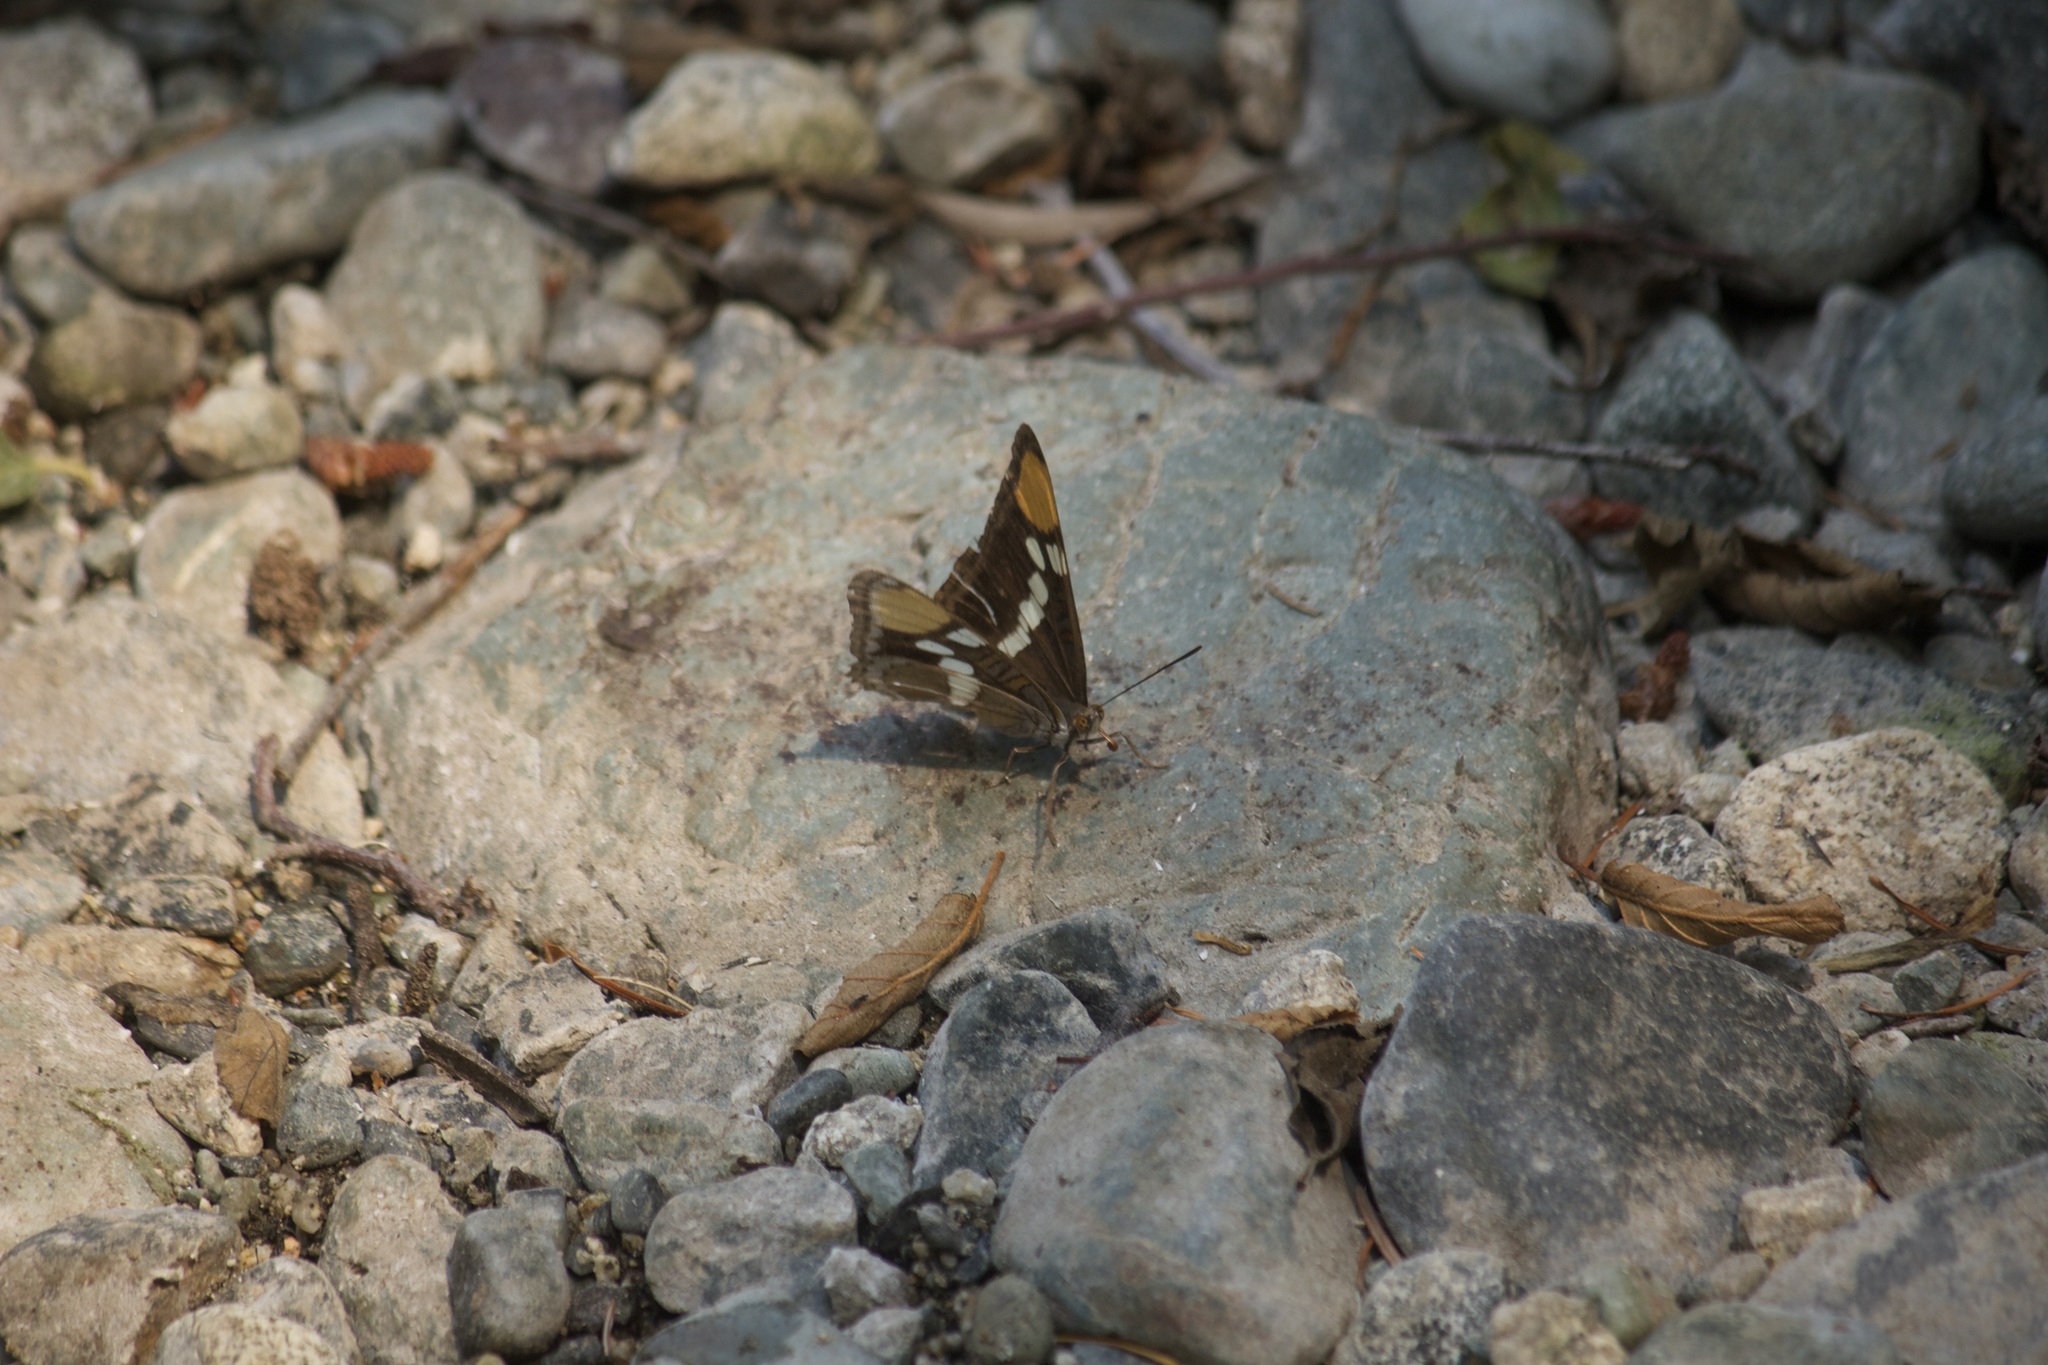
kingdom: Animalia
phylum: Arthropoda
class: Insecta
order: Lepidoptera
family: Nymphalidae
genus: Limenitis
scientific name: Limenitis bredowii
